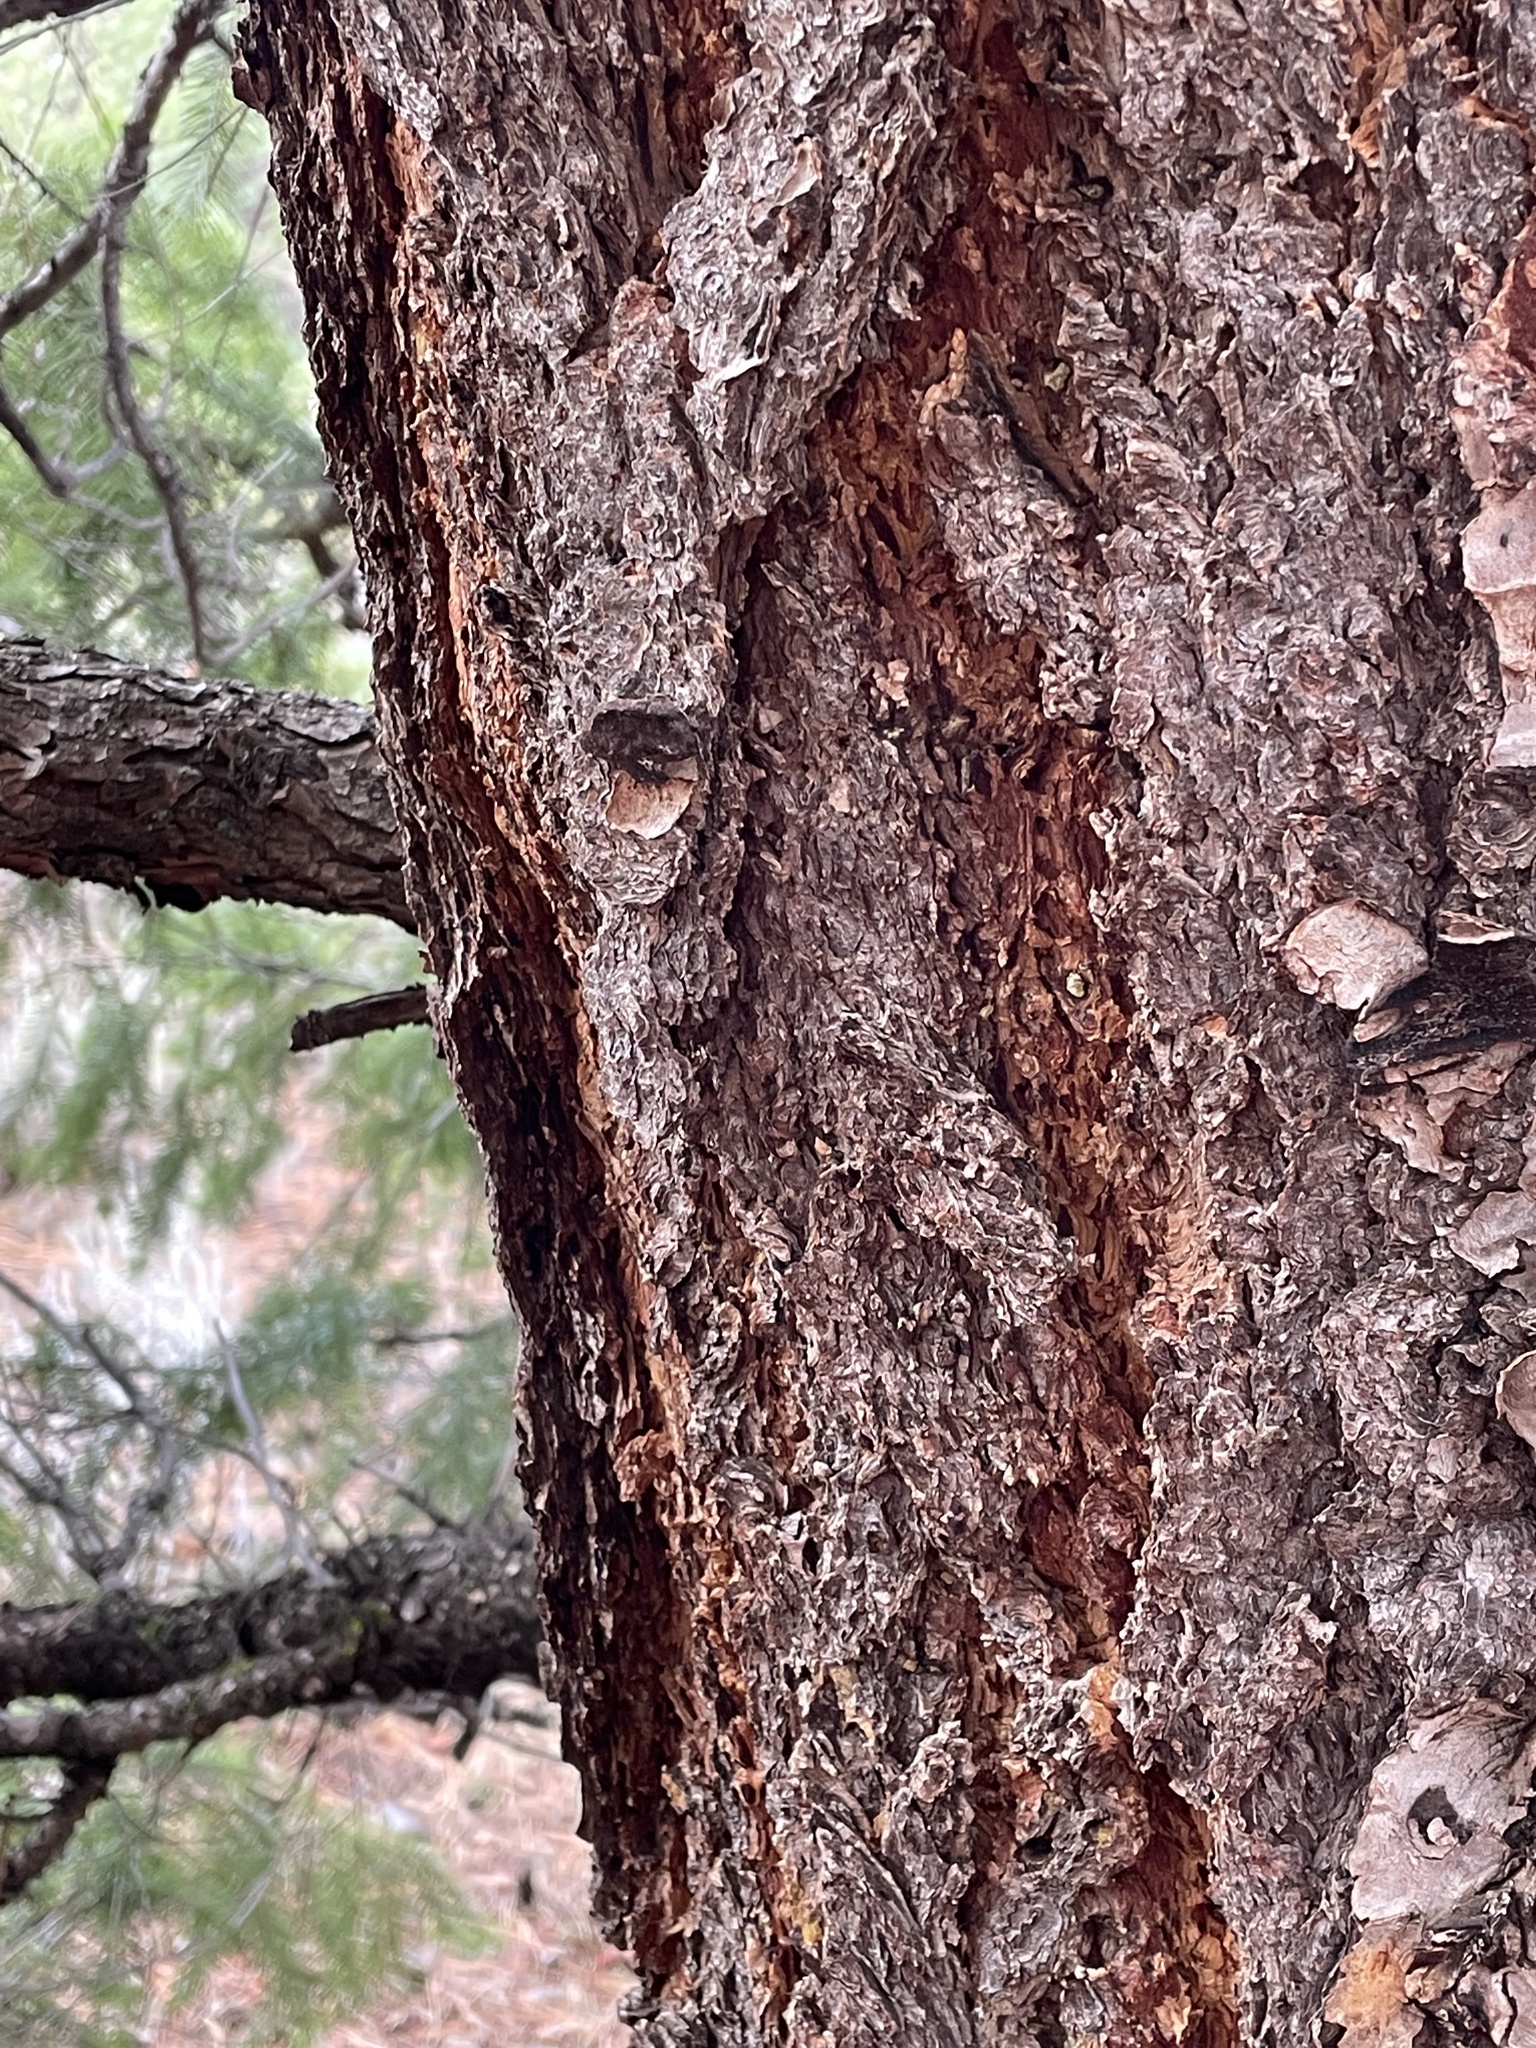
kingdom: Plantae
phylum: Tracheophyta
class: Pinopsida
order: Pinales
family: Pinaceae
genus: Pseudotsuga
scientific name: Pseudotsuga menziesii
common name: Douglas fir
